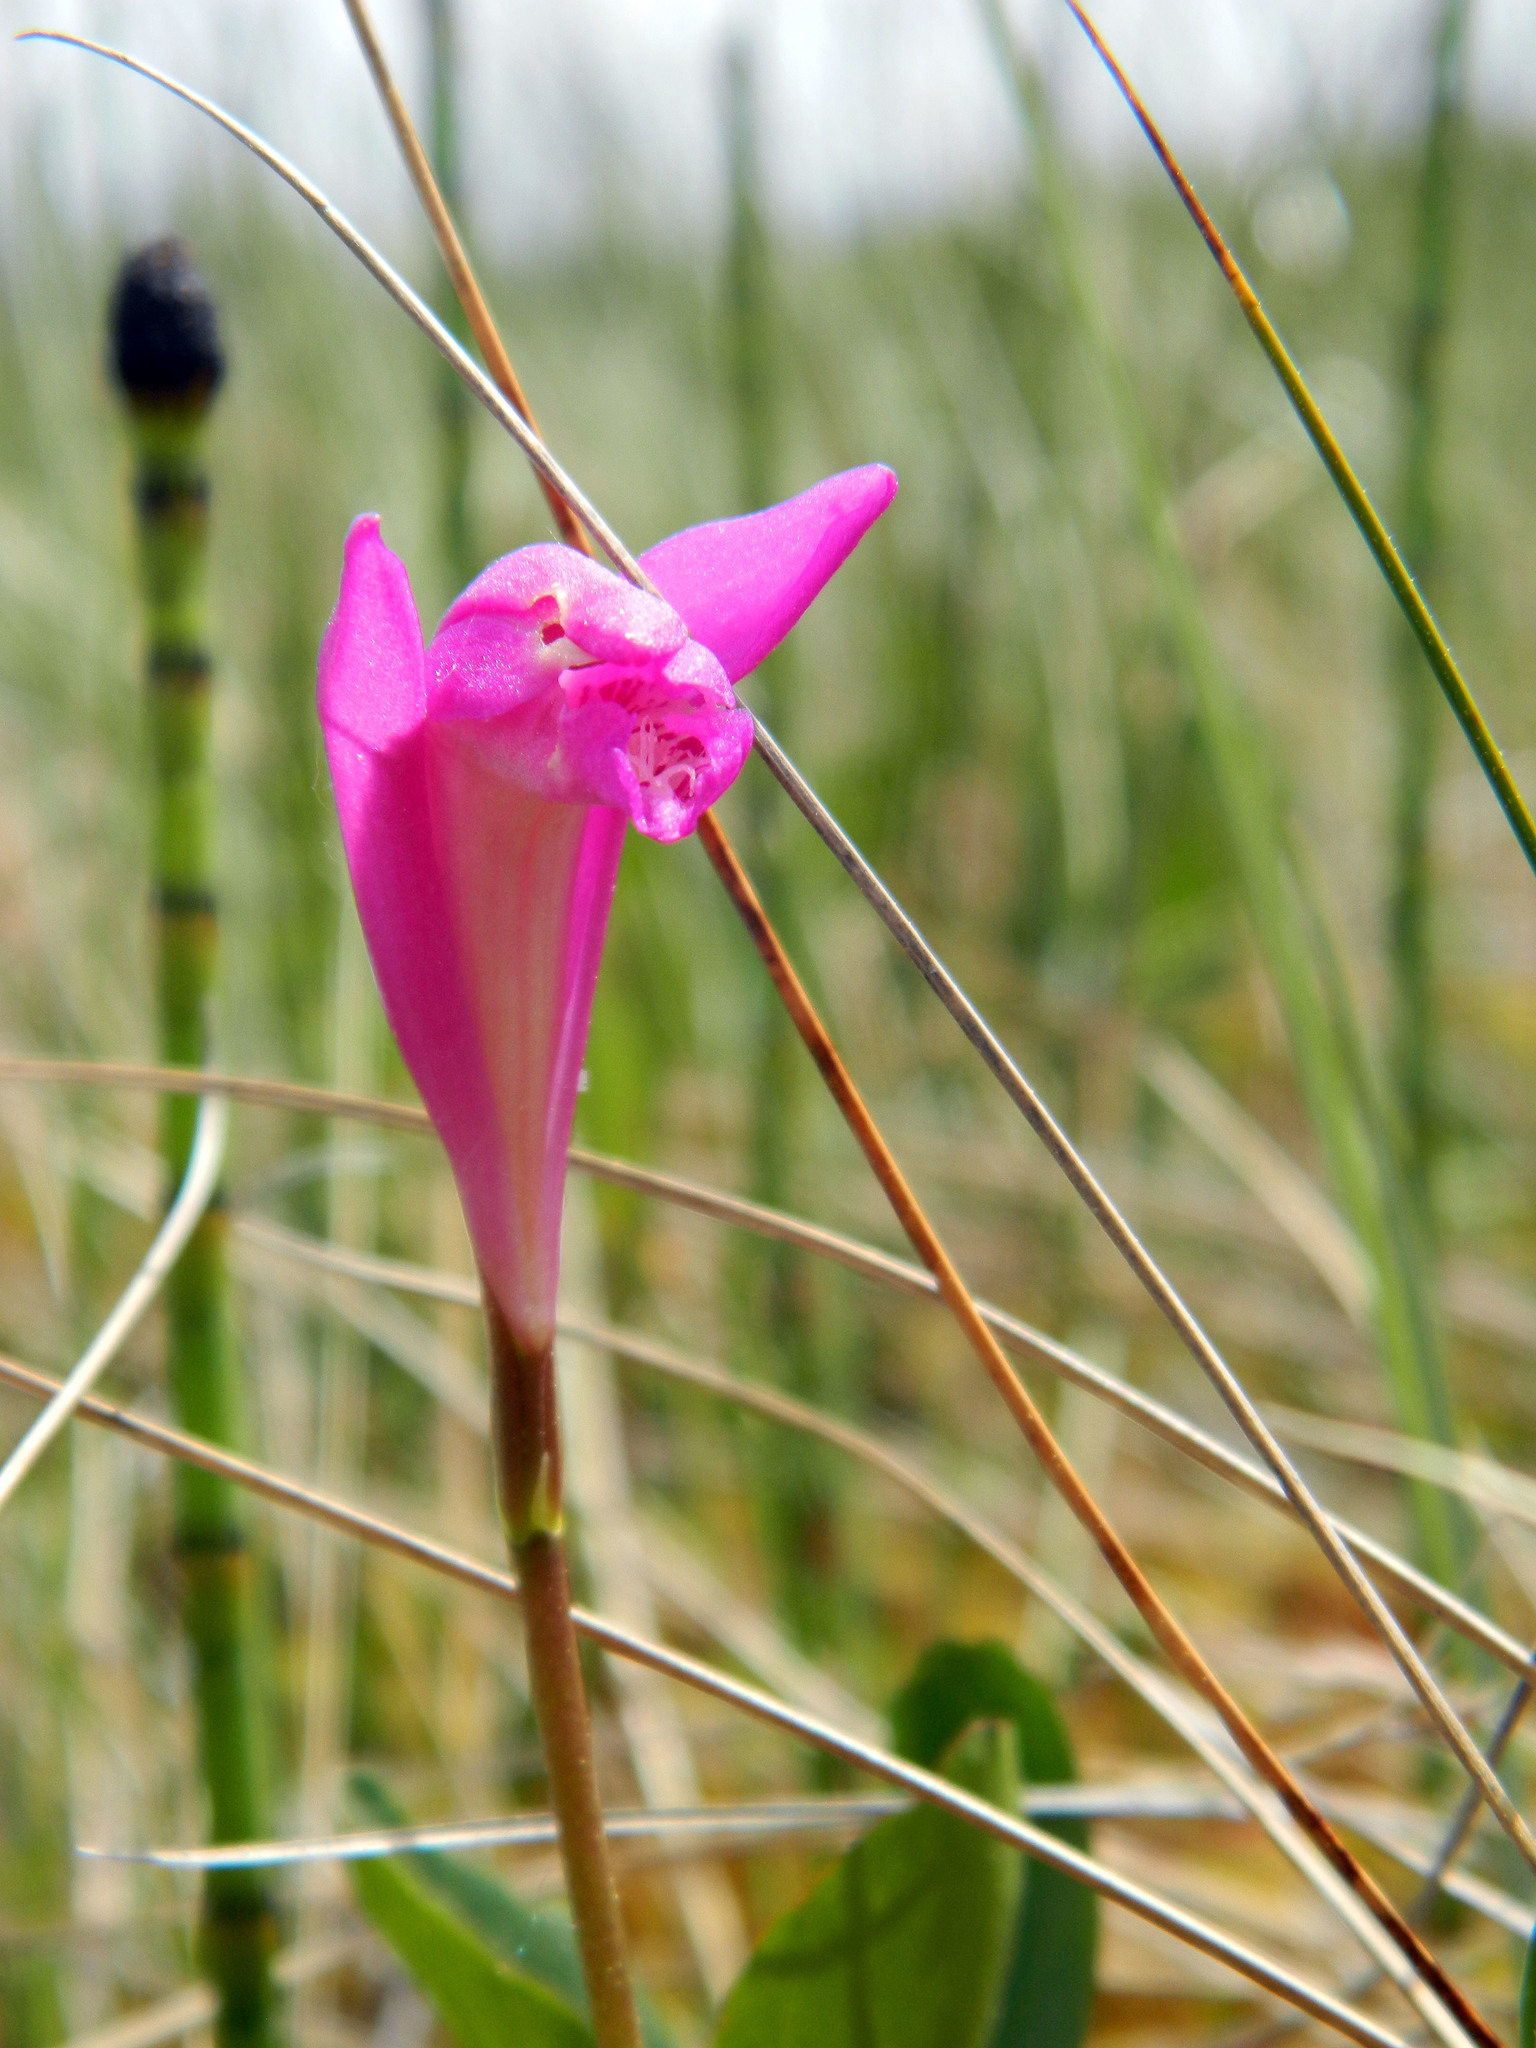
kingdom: Plantae
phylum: Tracheophyta
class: Liliopsida
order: Asparagales
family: Orchidaceae
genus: Arethusa
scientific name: Arethusa bulbosa
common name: Arethusa
